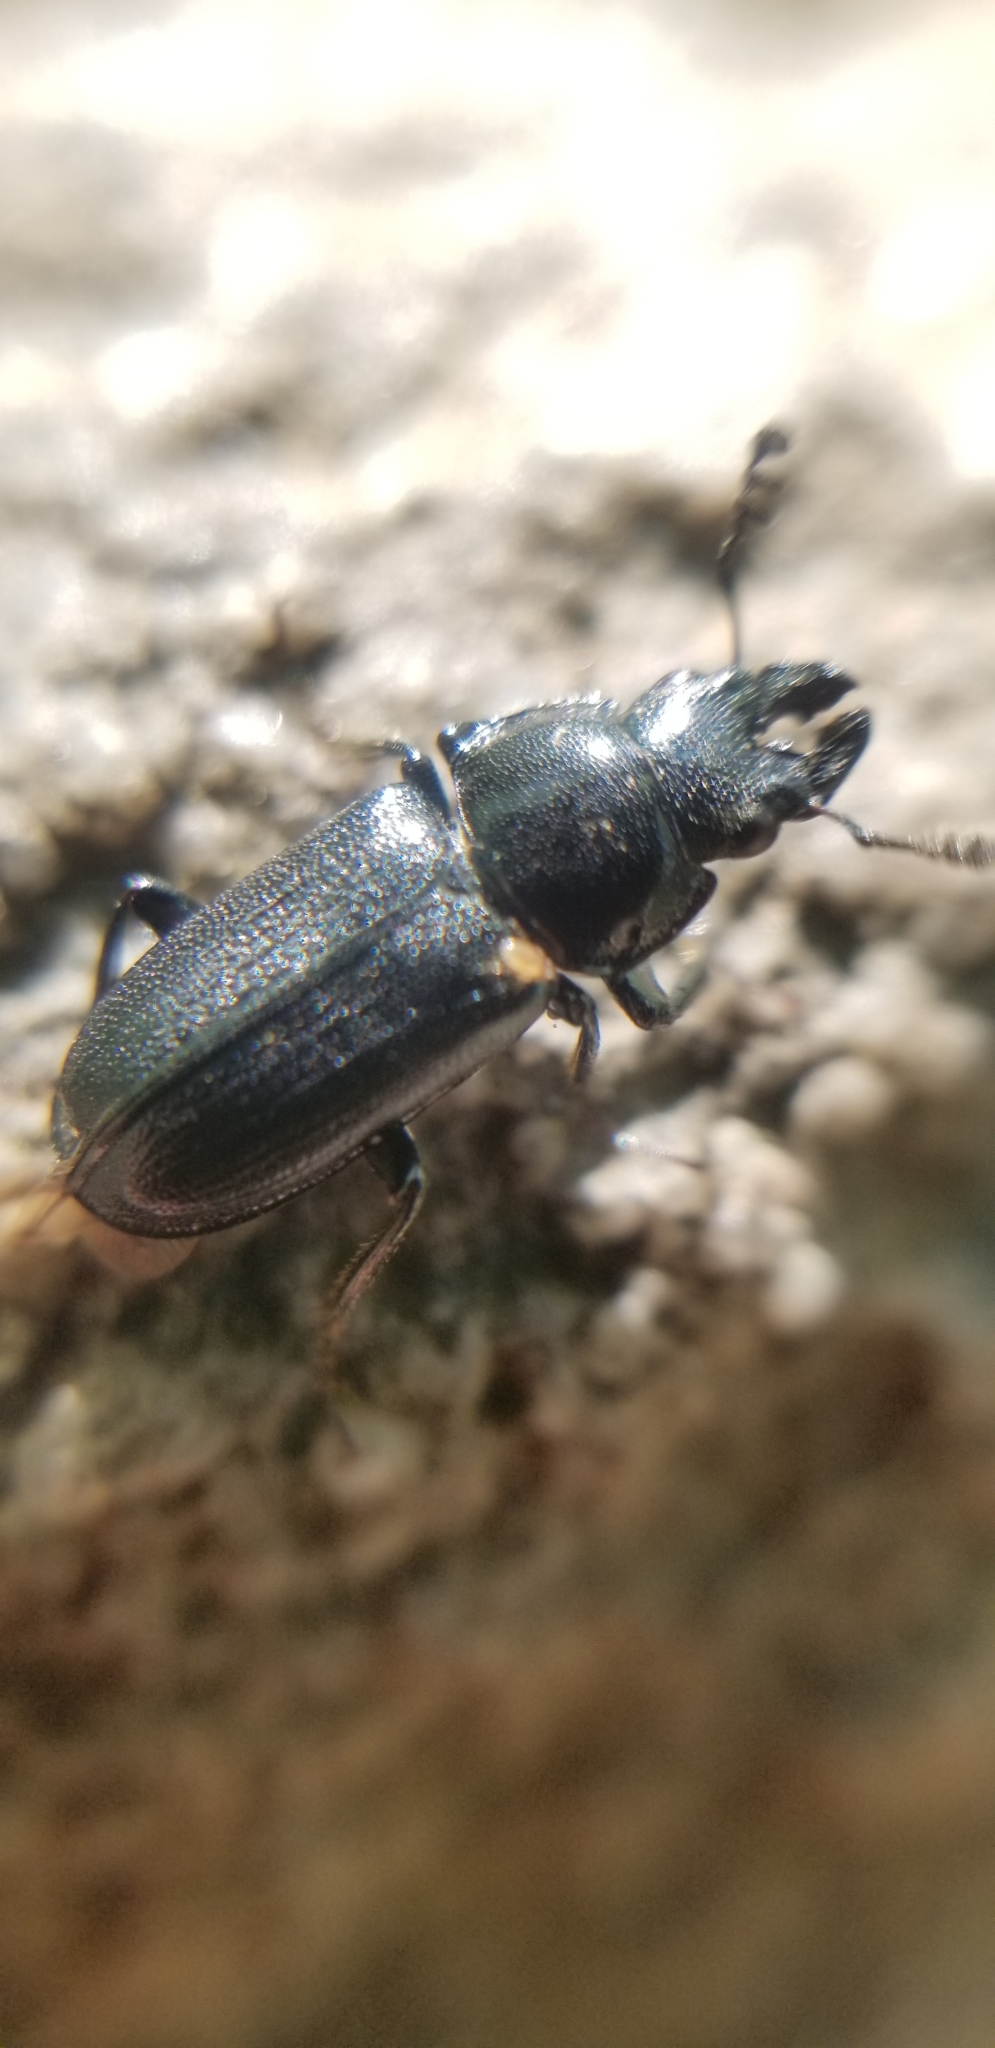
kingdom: Animalia
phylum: Arthropoda
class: Insecta
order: Coleoptera
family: Lucanidae
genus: Platycerus
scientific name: Platycerus quercus
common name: Oak stag beetle
